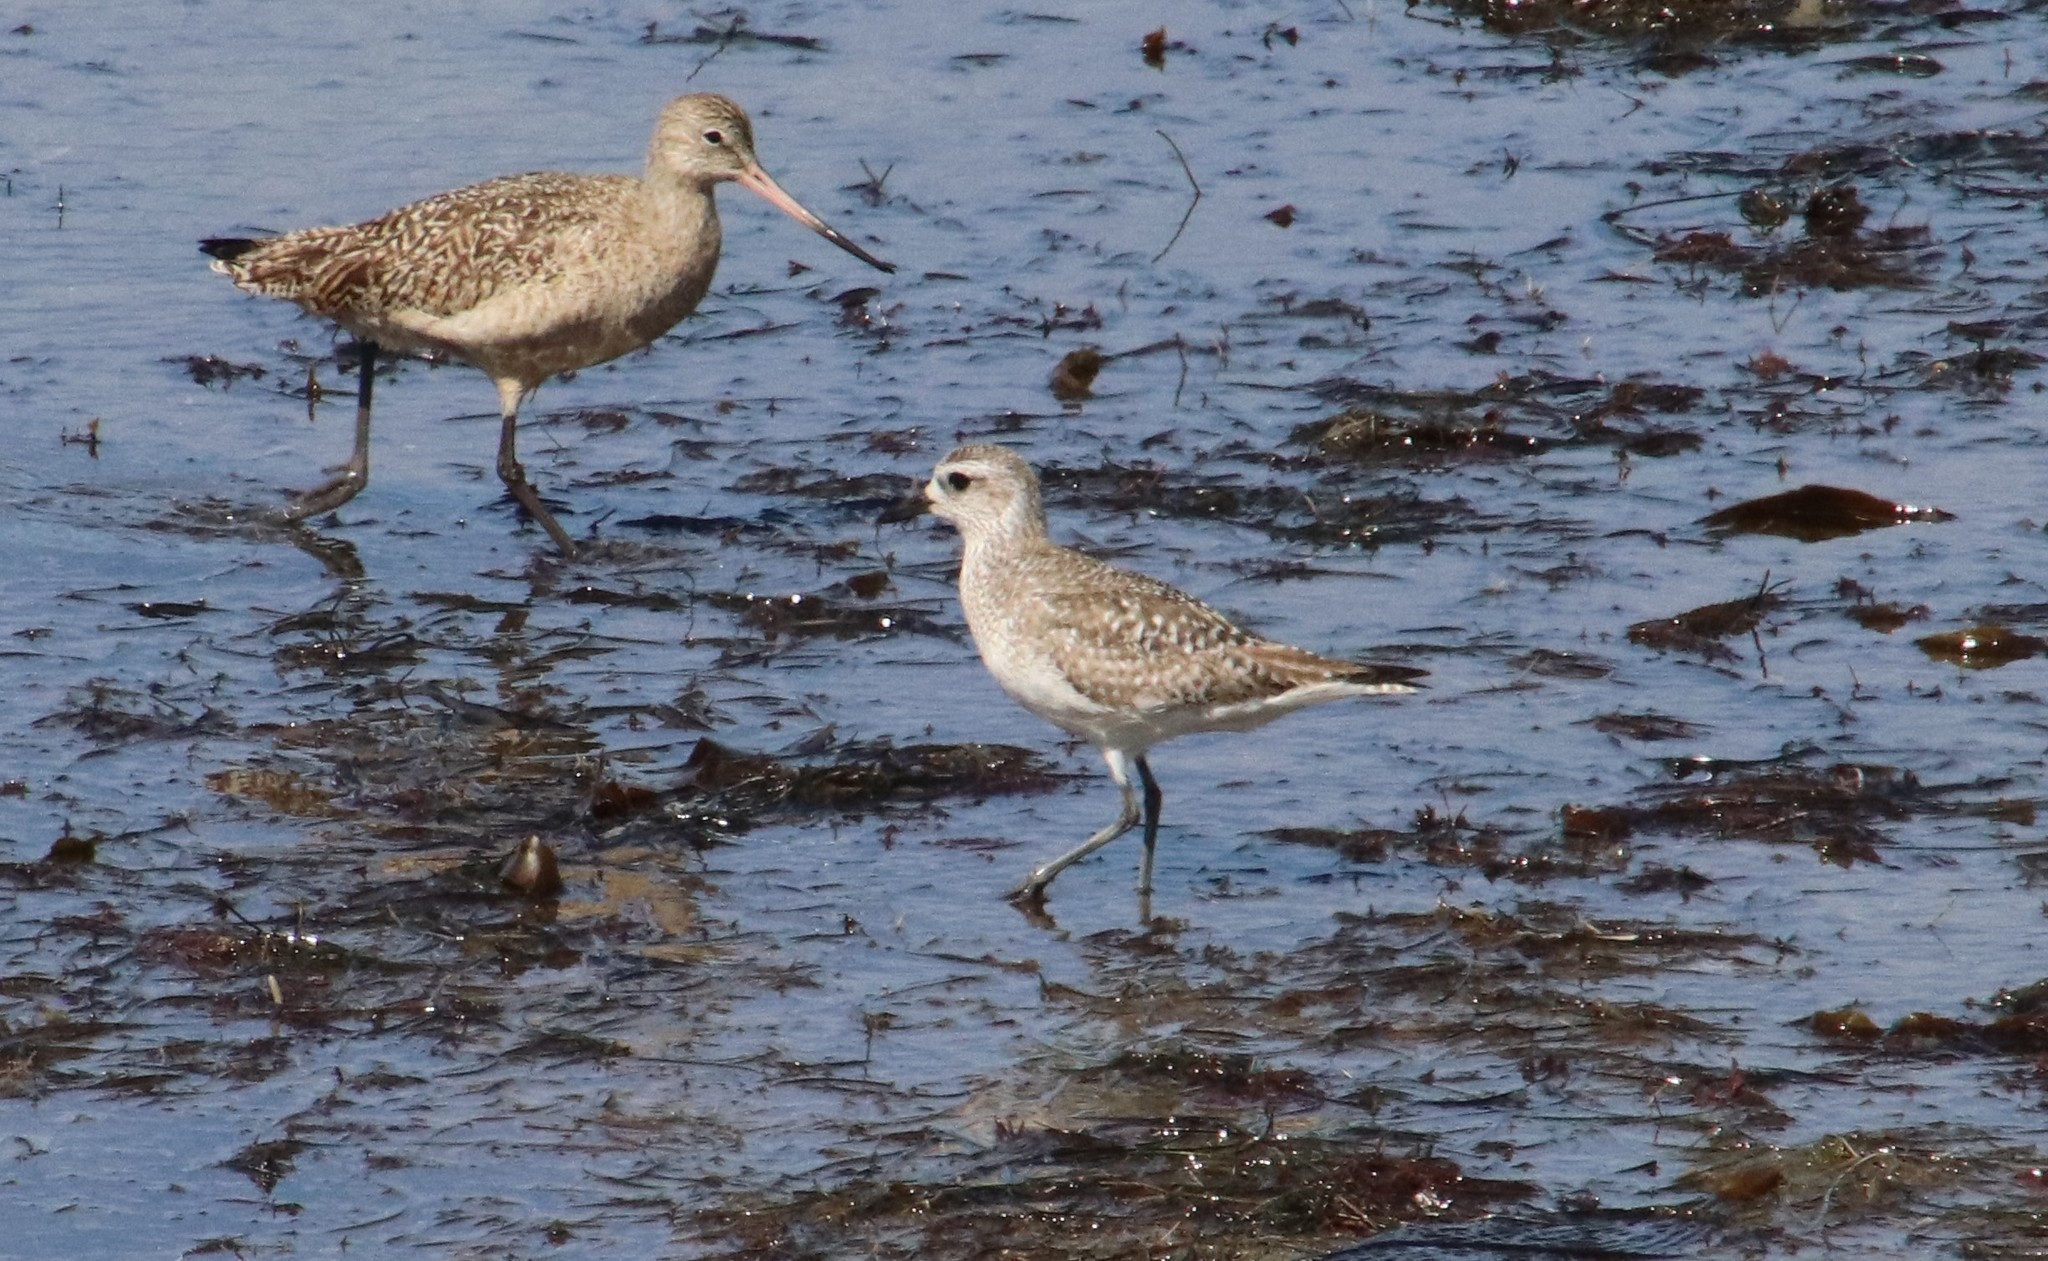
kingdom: Animalia
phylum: Chordata
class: Aves
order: Charadriiformes
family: Charadriidae
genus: Pluvialis
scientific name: Pluvialis squatarola
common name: Grey plover
